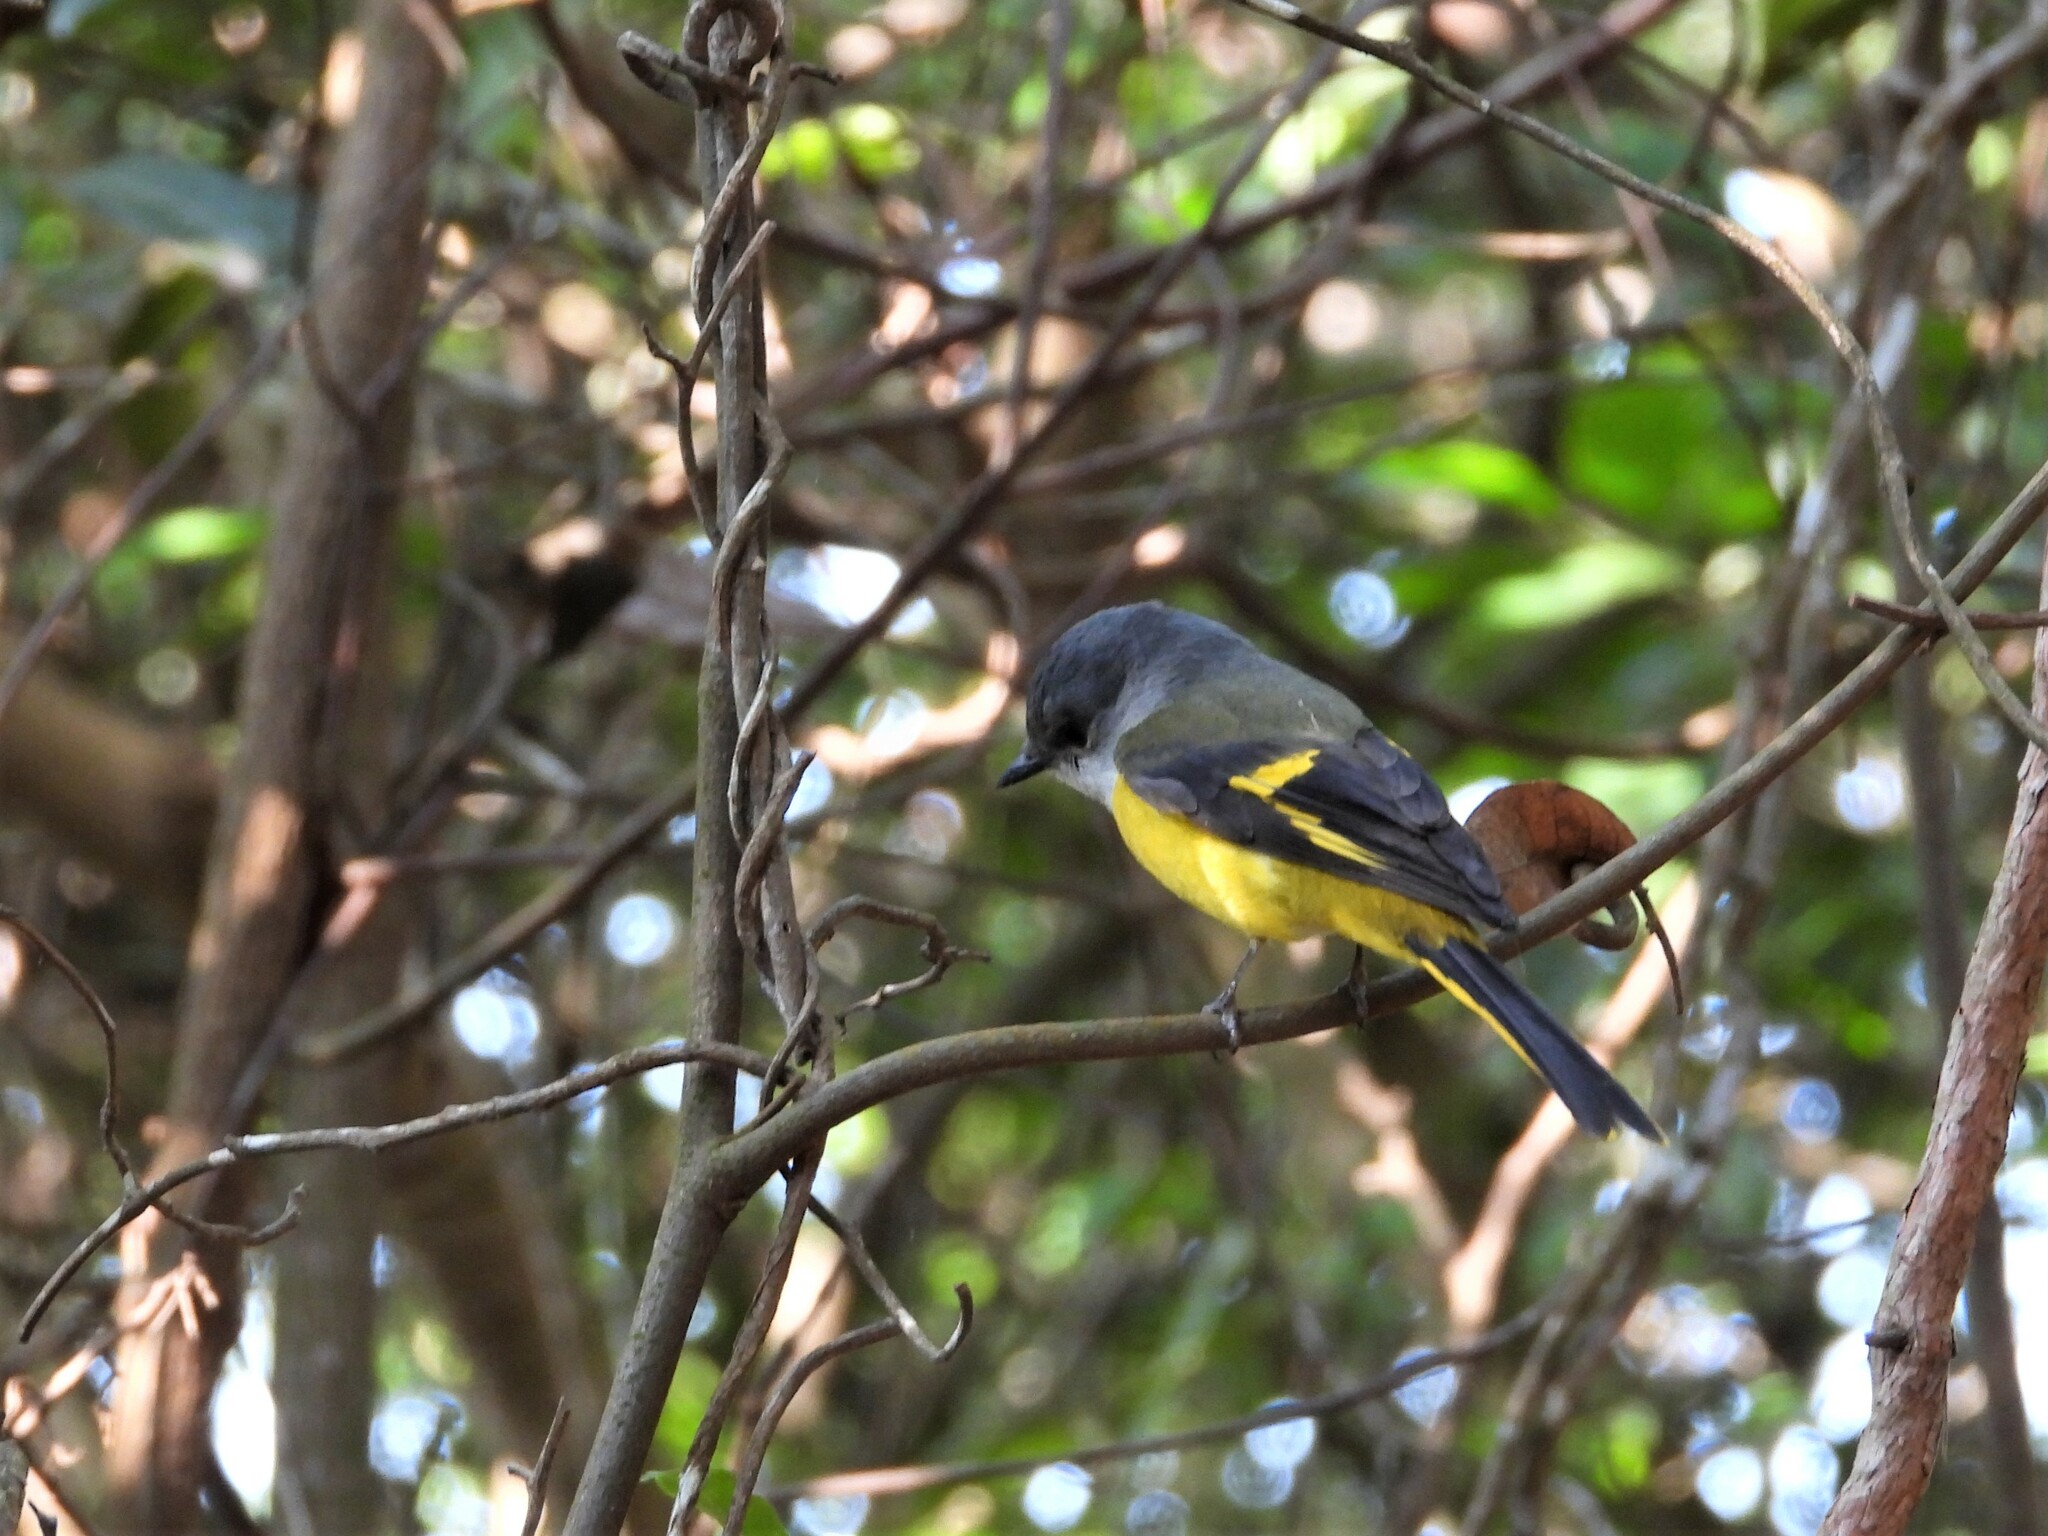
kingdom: Animalia
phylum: Chordata
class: Aves
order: Passeriformes
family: Campephagidae
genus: Pericrocotus
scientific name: Pericrocotus solaris
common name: Grey-chinned minivet
